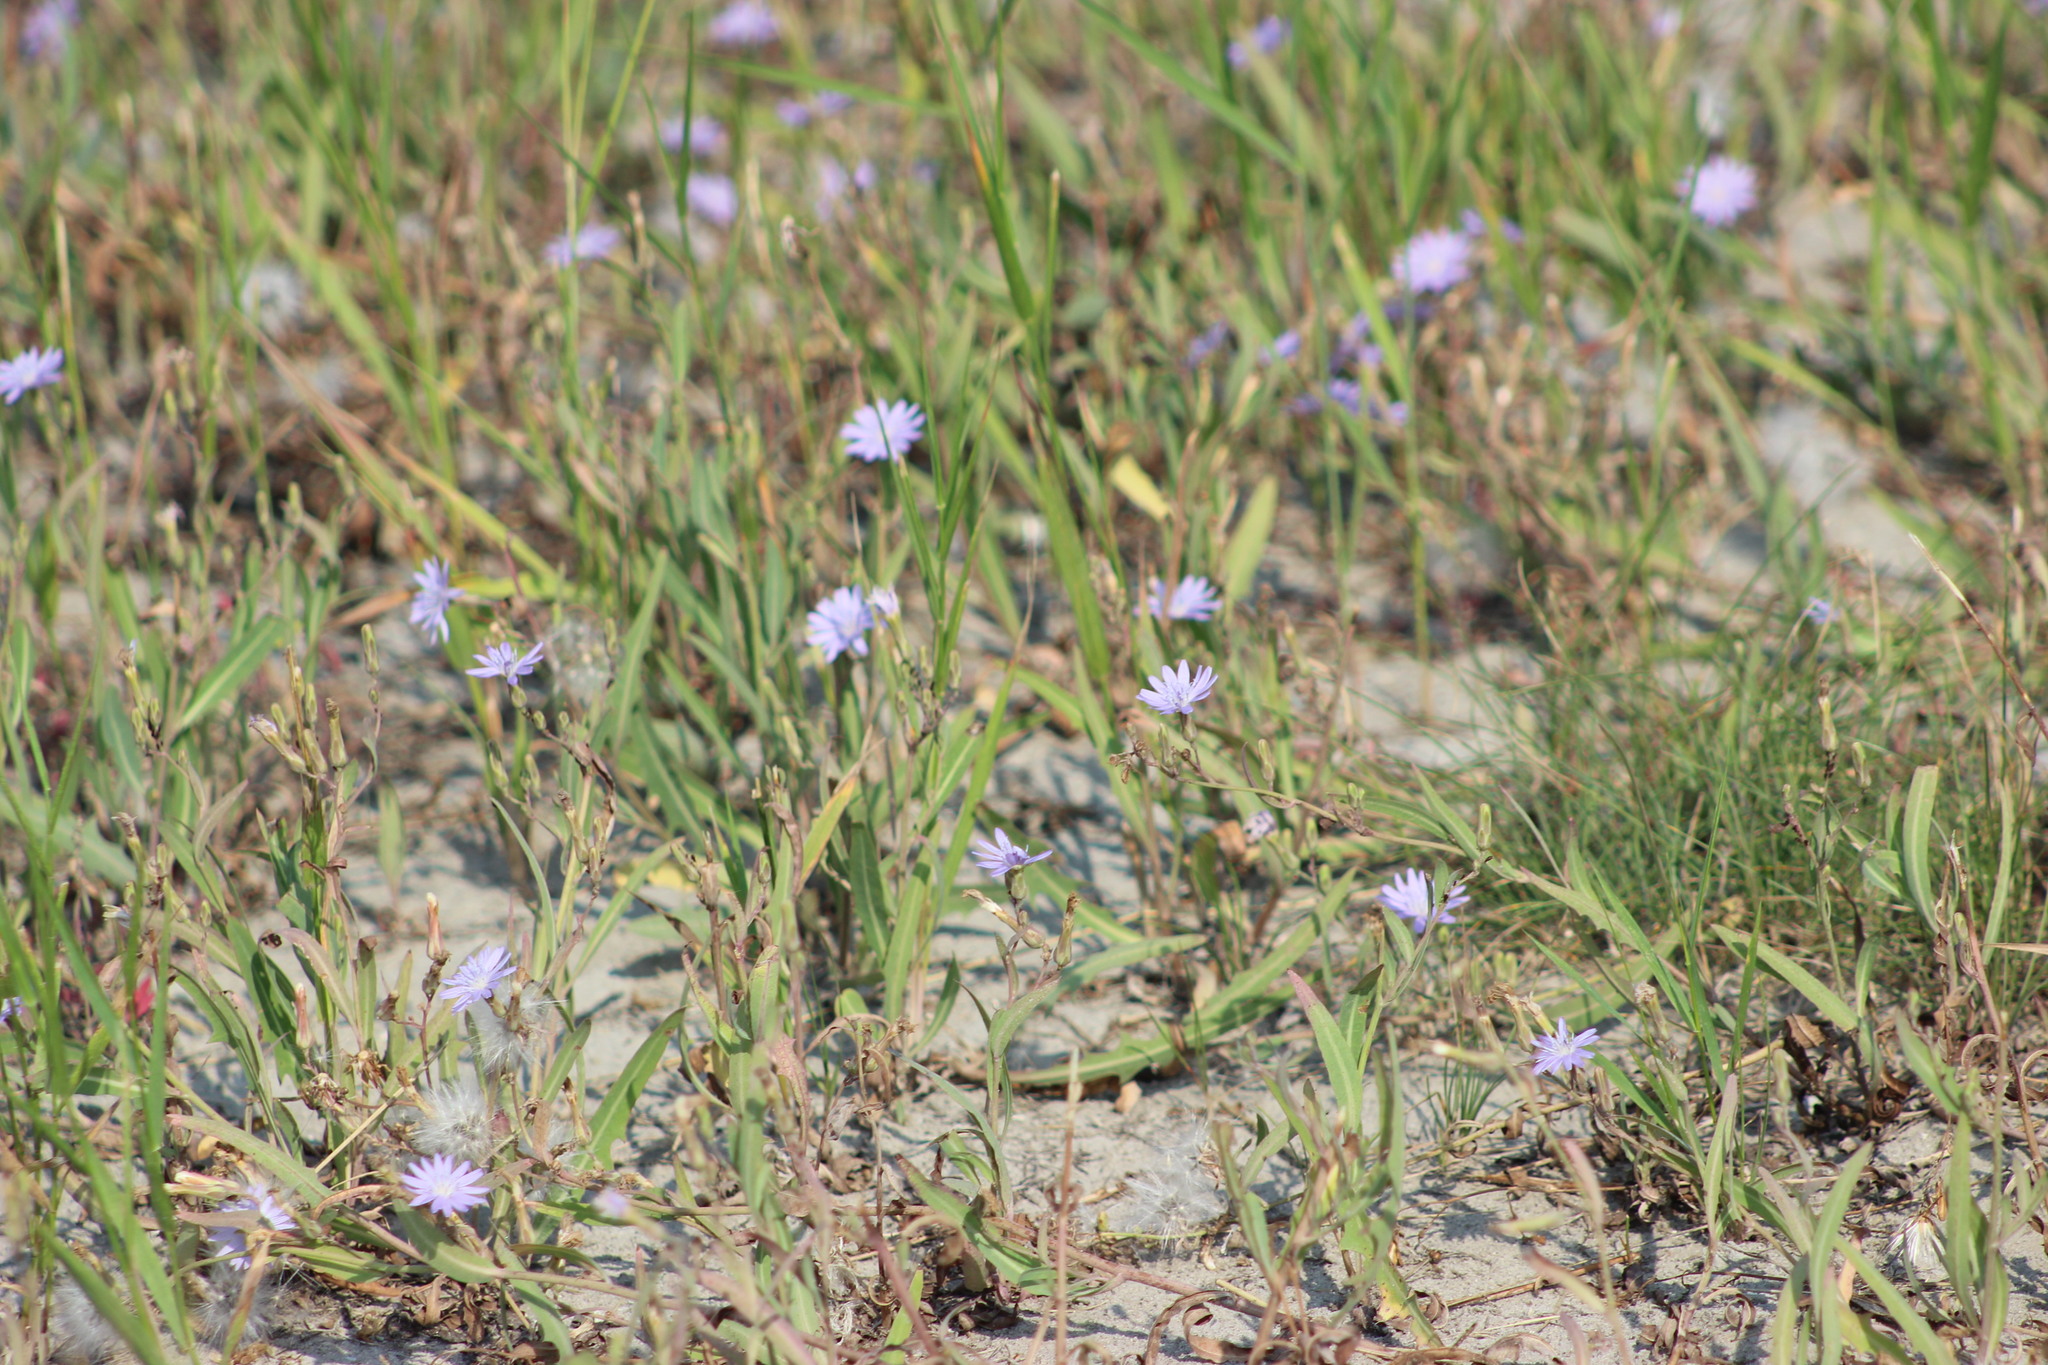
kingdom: Plantae
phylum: Tracheophyta
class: Magnoliopsida
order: Asterales
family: Asteraceae
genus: Lactuca
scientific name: Lactuca tatarica
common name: Blue lettuce
